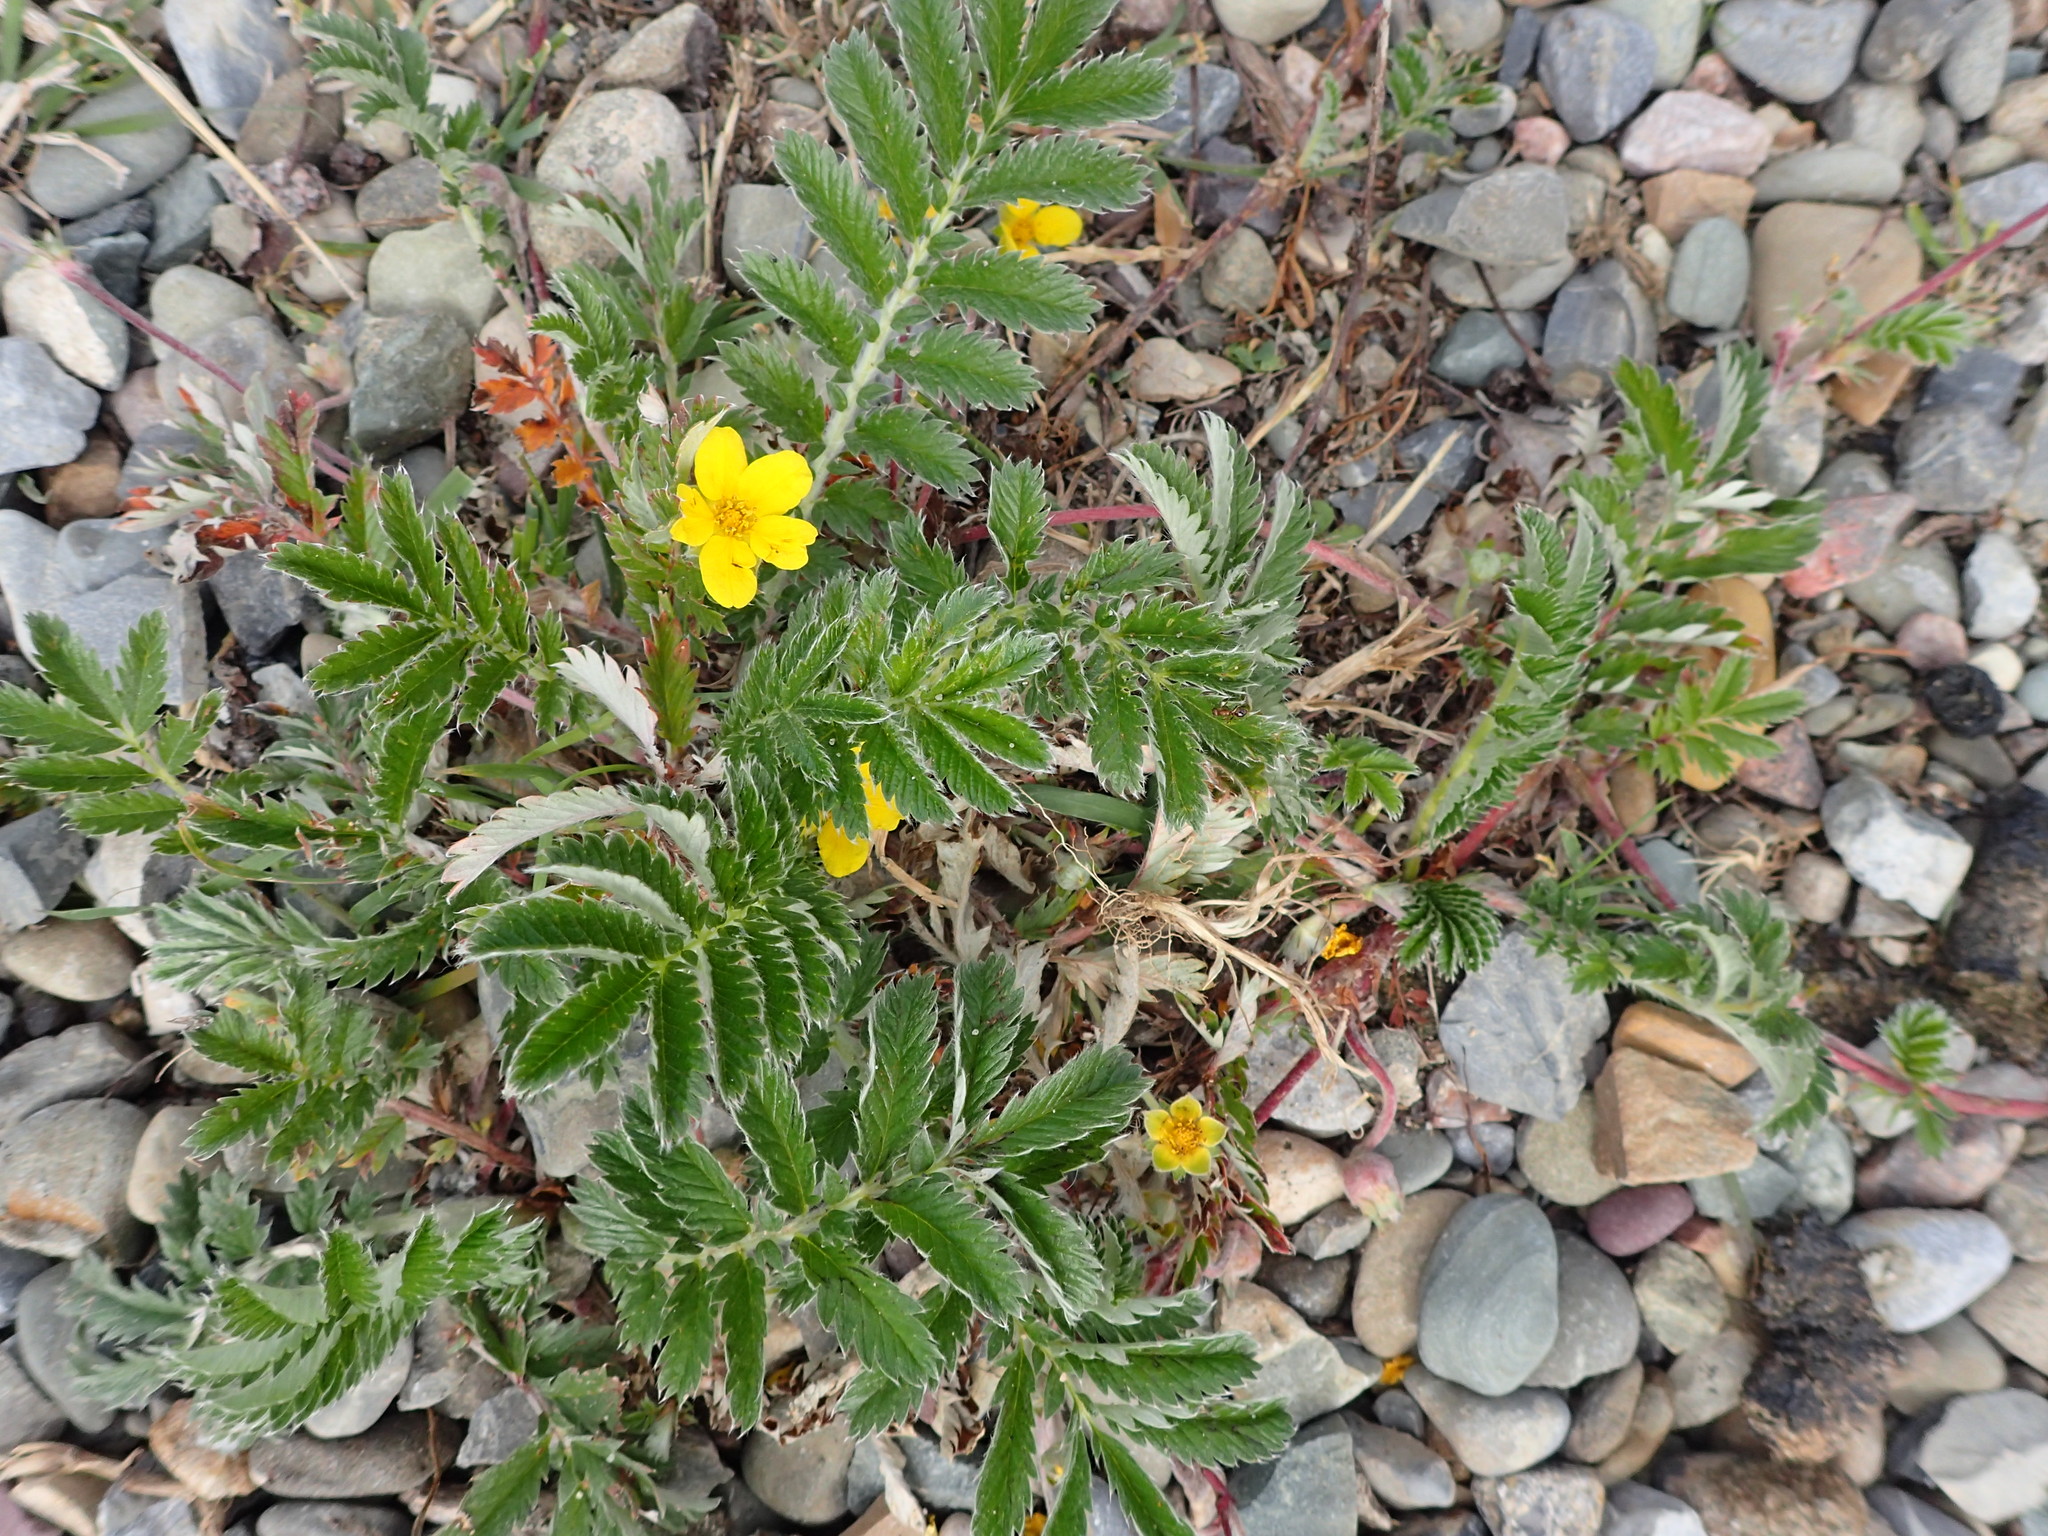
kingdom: Plantae
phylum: Tracheophyta
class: Magnoliopsida
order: Rosales
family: Rosaceae
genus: Argentina
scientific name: Argentina anserina
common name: Common silverweed
